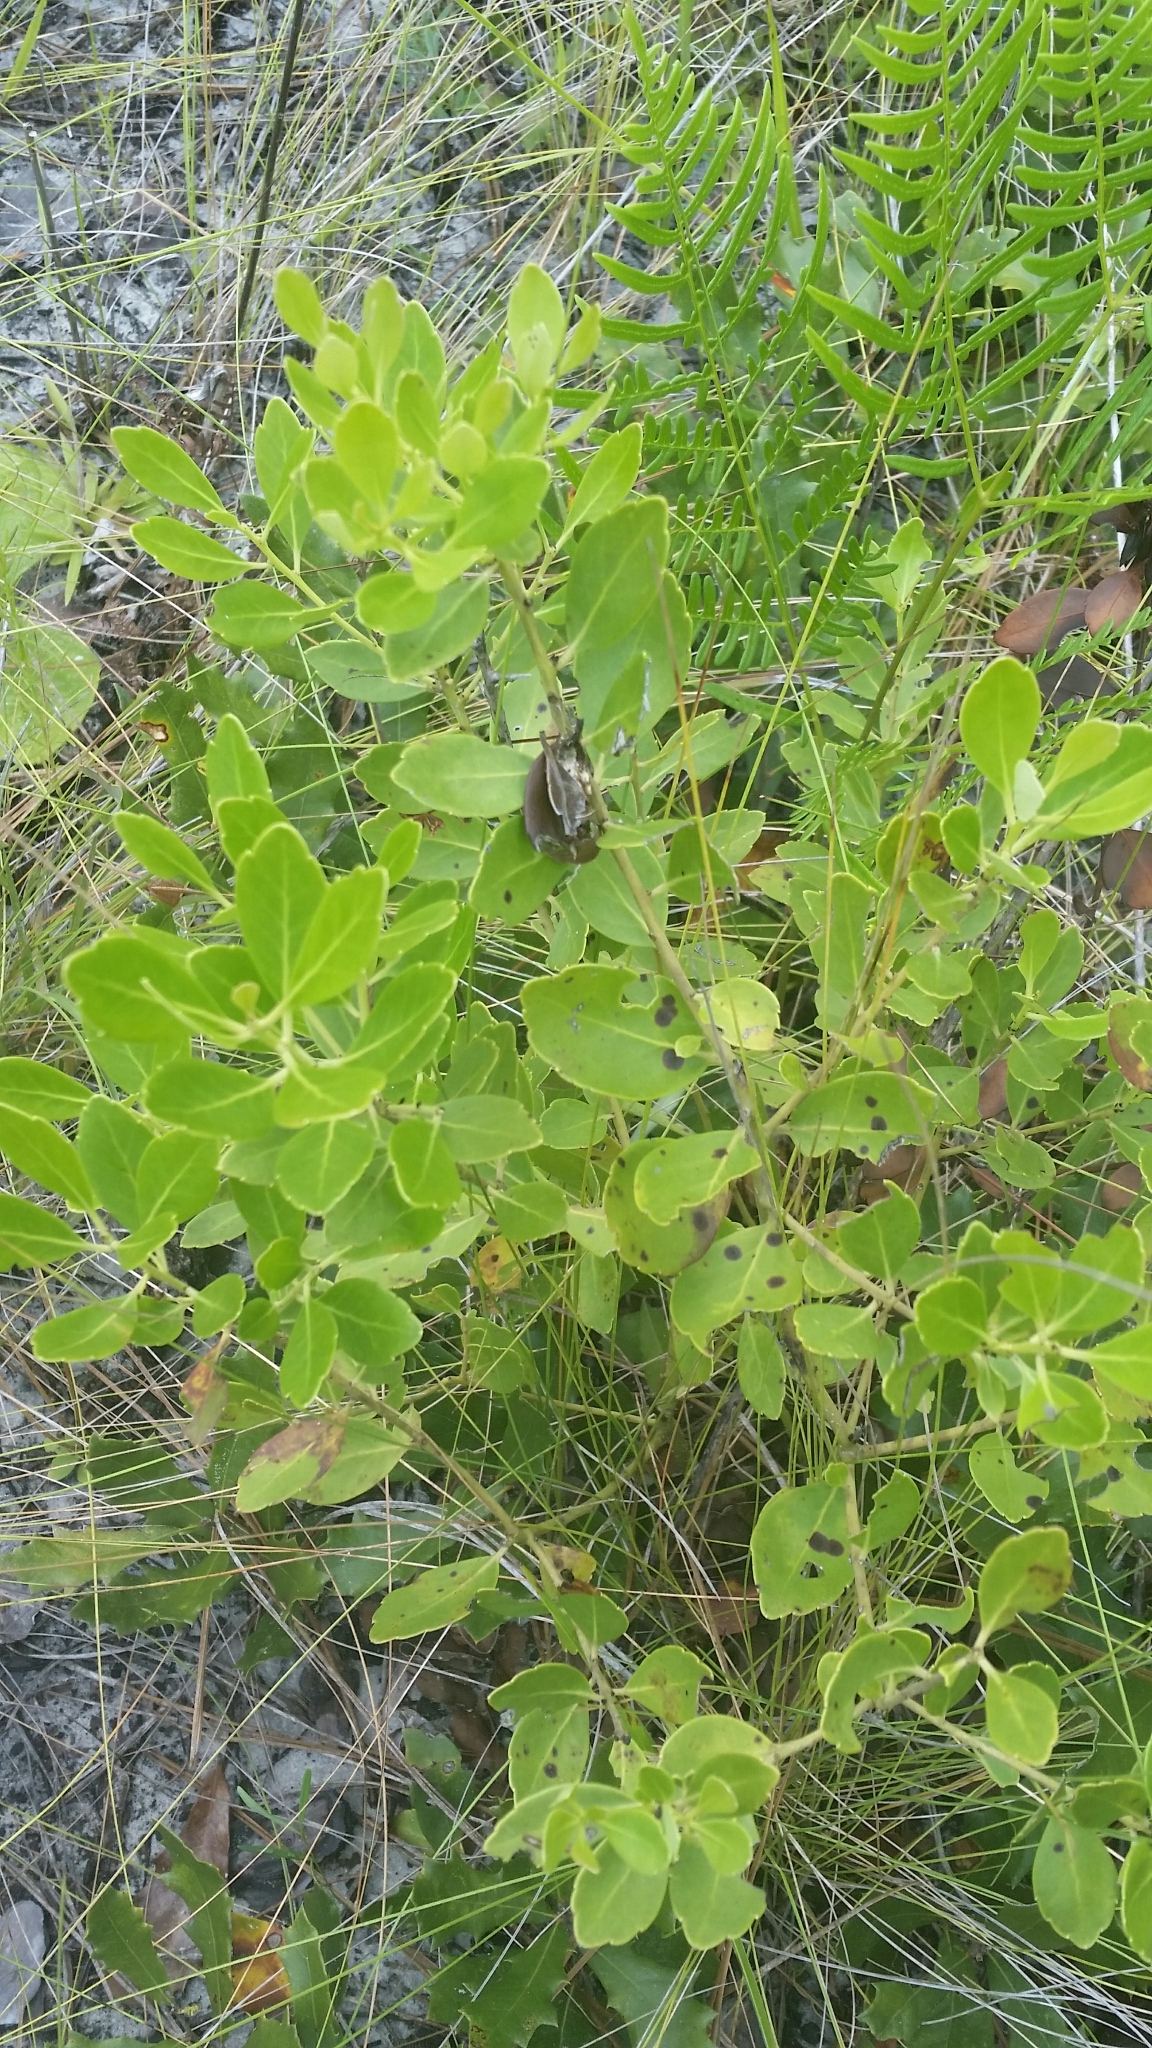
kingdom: Plantae
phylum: Tracheophyta
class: Magnoliopsida
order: Aquifoliales
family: Aquifoliaceae
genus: Ilex
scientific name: Ilex glabra
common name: Bitter gallberry
